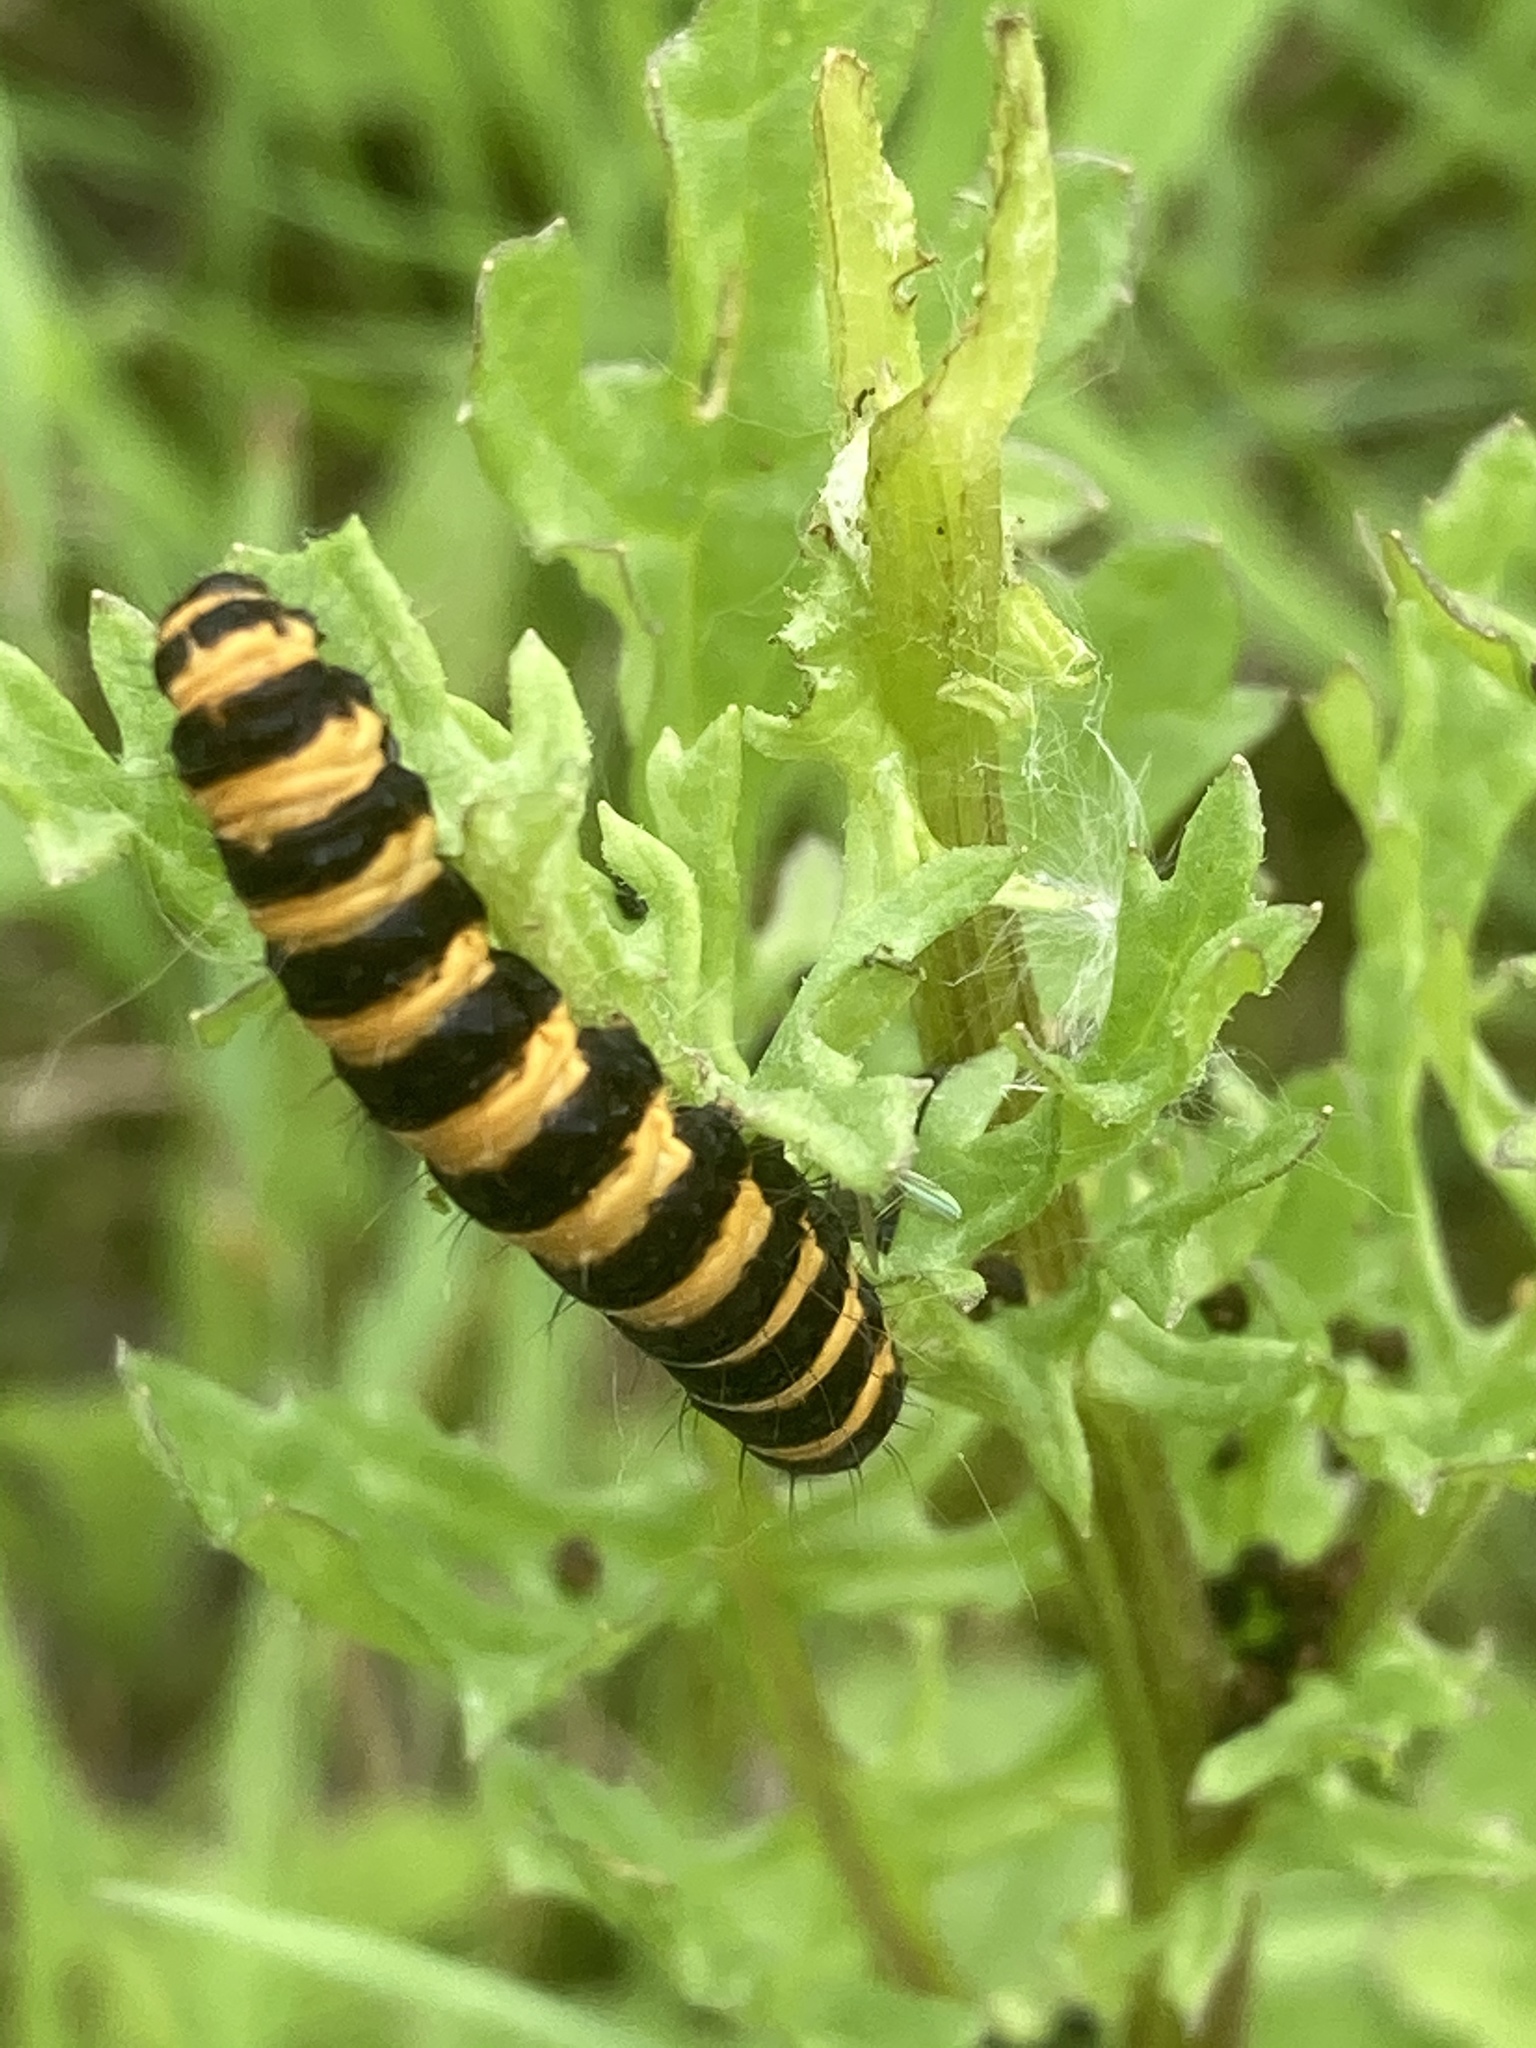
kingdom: Animalia
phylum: Arthropoda
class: Insecta
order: Lepidoptera
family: Erebidae
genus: Tyria
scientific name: Tyria jacobaeae
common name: Cinnabar
